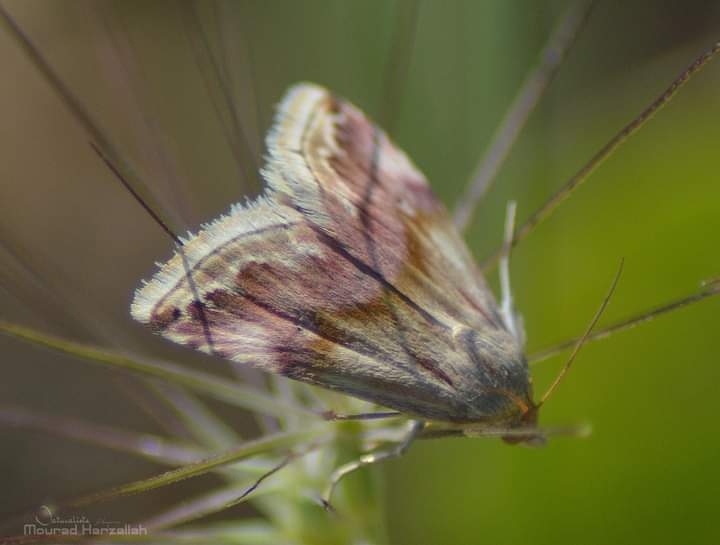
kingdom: Animalia
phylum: Arthropoda
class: Insecta
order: Lepidoptera
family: Noctuidae
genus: Eublemma
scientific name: Eublemma ostrina
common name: Purple marbled
